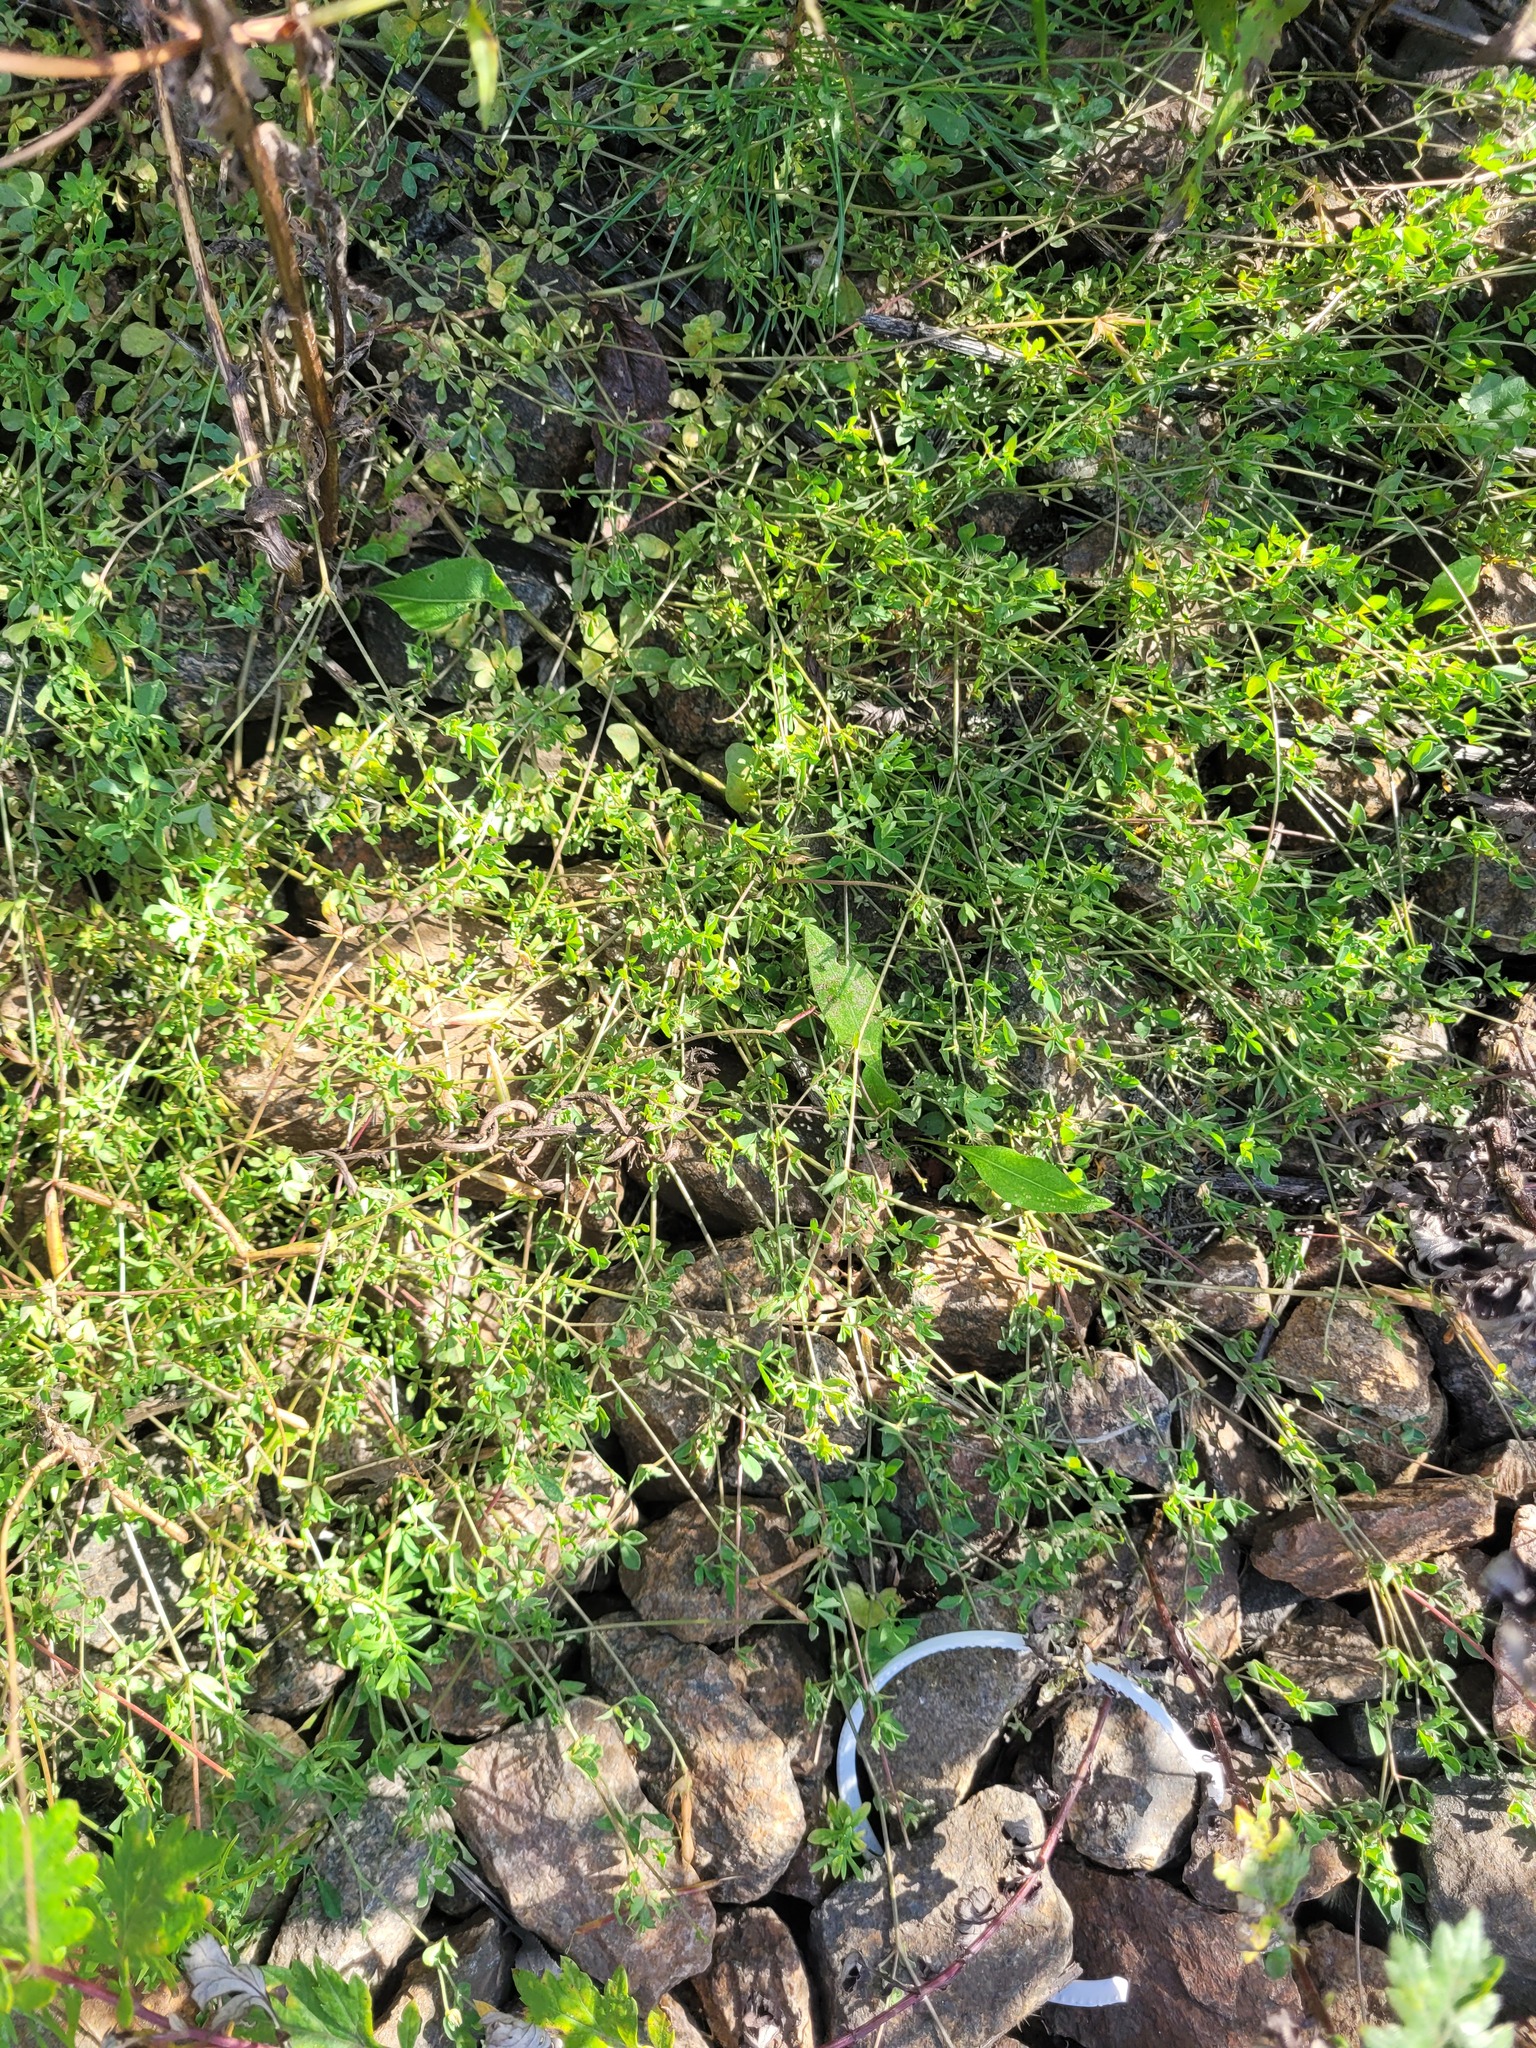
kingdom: Plantae
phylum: Tracheophyta
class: Magnoliopsida
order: Fabales
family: Fabaceae
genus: Lotus
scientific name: Lotus corniculatus
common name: Common bird's-foot-trefoil
